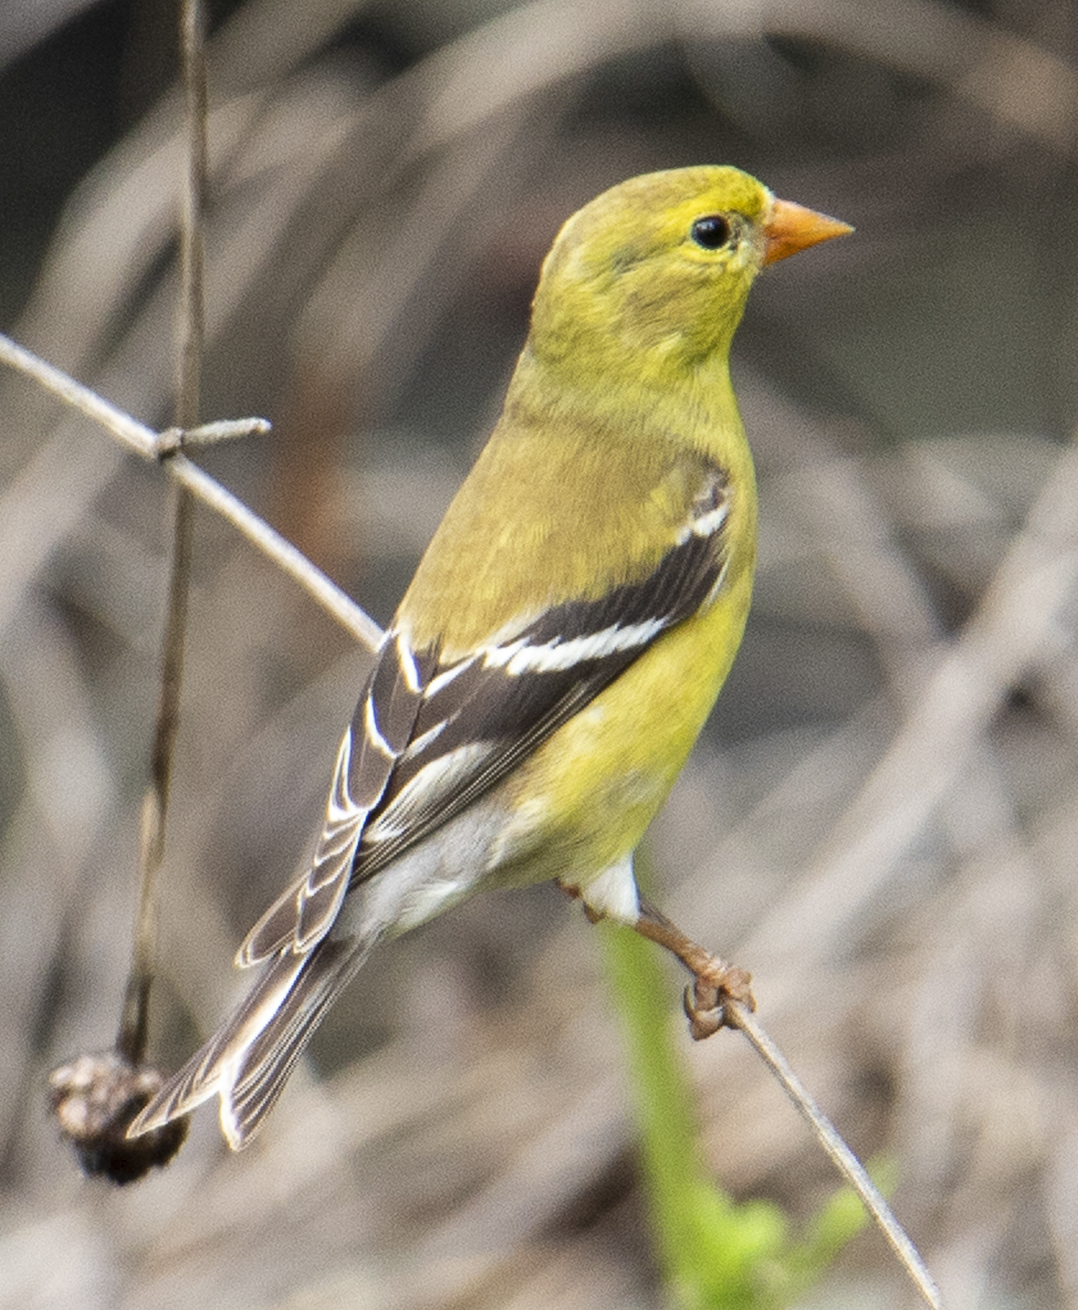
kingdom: Animalia
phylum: Chordata
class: Aves
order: Passeriformes
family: Fringillidae
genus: Spinus
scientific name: Spinus tristis
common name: American goldfinch
